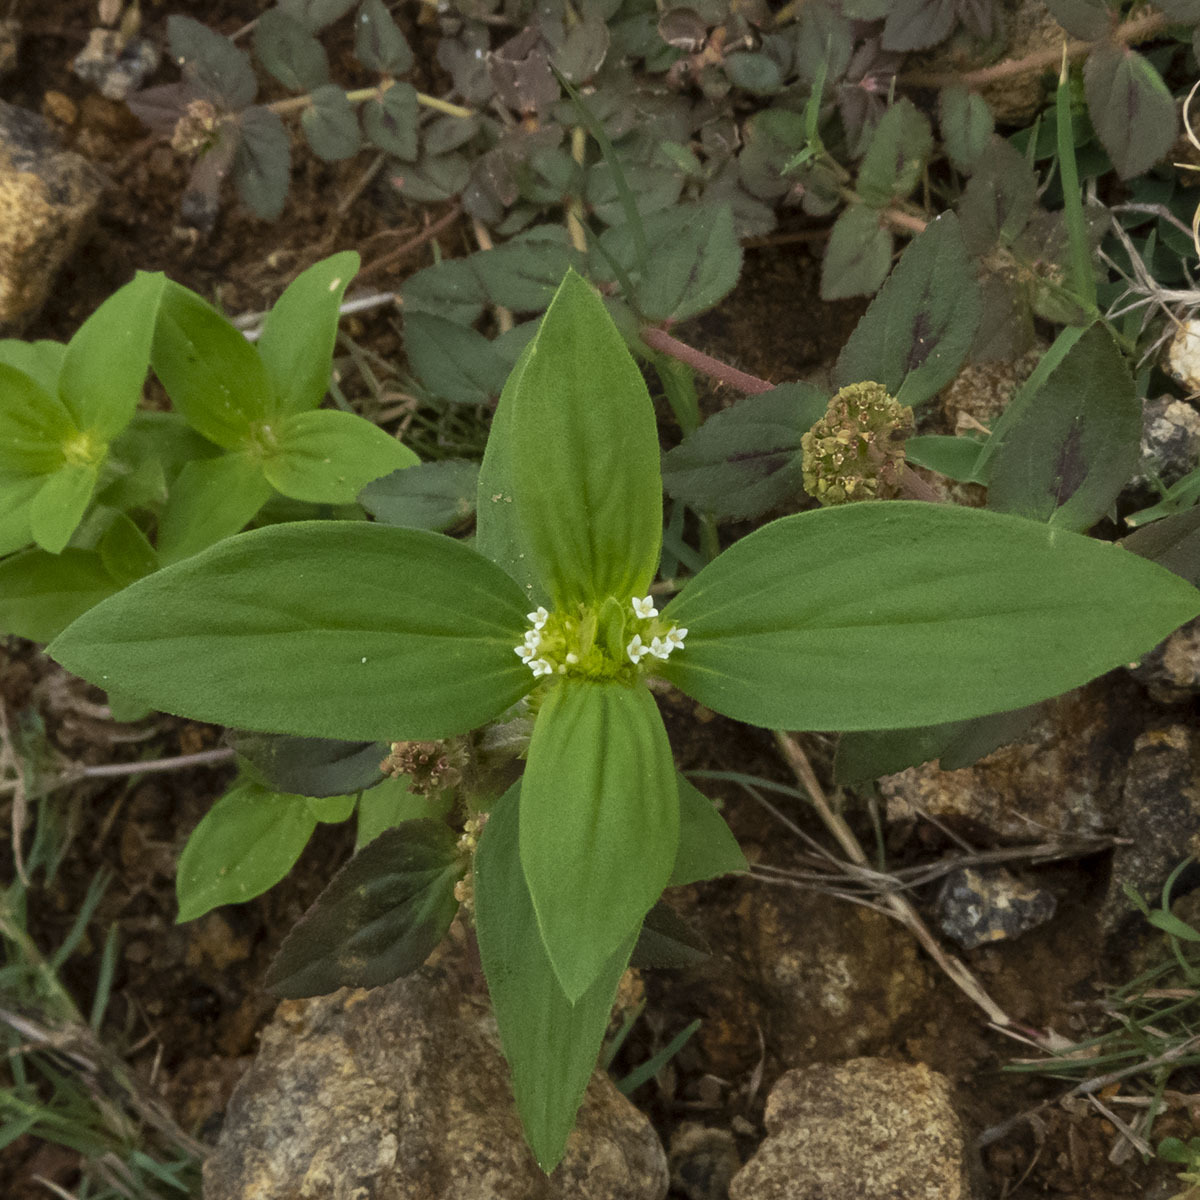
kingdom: Plantae
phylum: Tracheophyta
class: Magnoliopsida
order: Gentianales
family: Rubiaceae
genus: Spermacoce
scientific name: Spermacoce ocymoides
